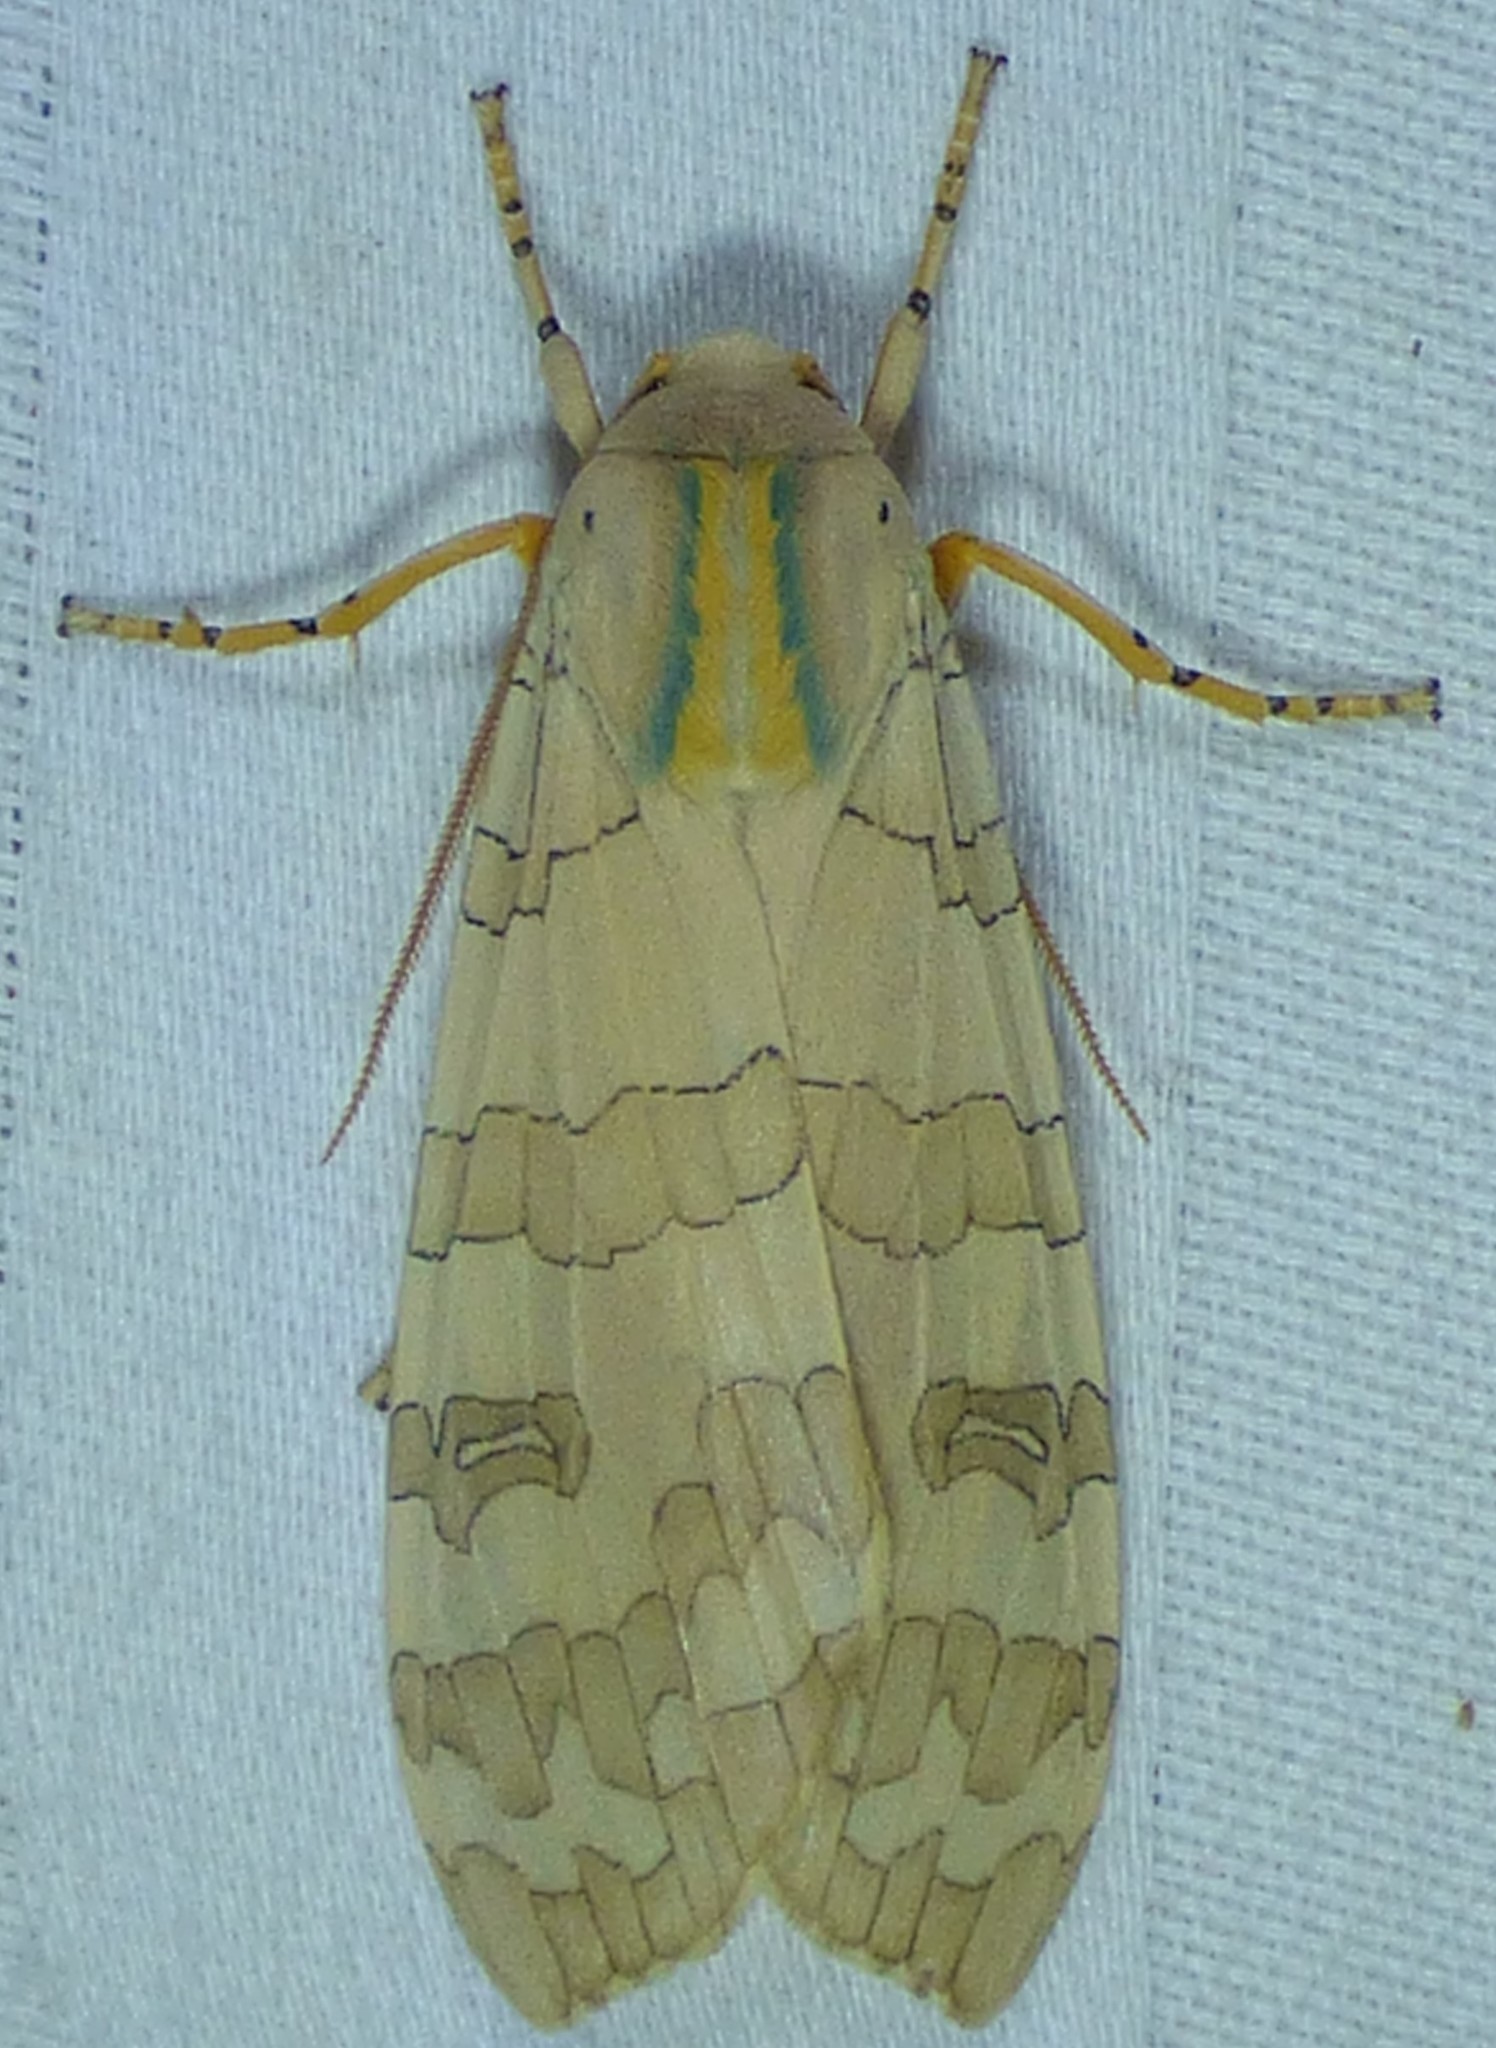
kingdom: Animalia
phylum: Arthropoda
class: Insecta
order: Lepidoptera
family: Erebidae
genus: Halysidota
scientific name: Halysidota
